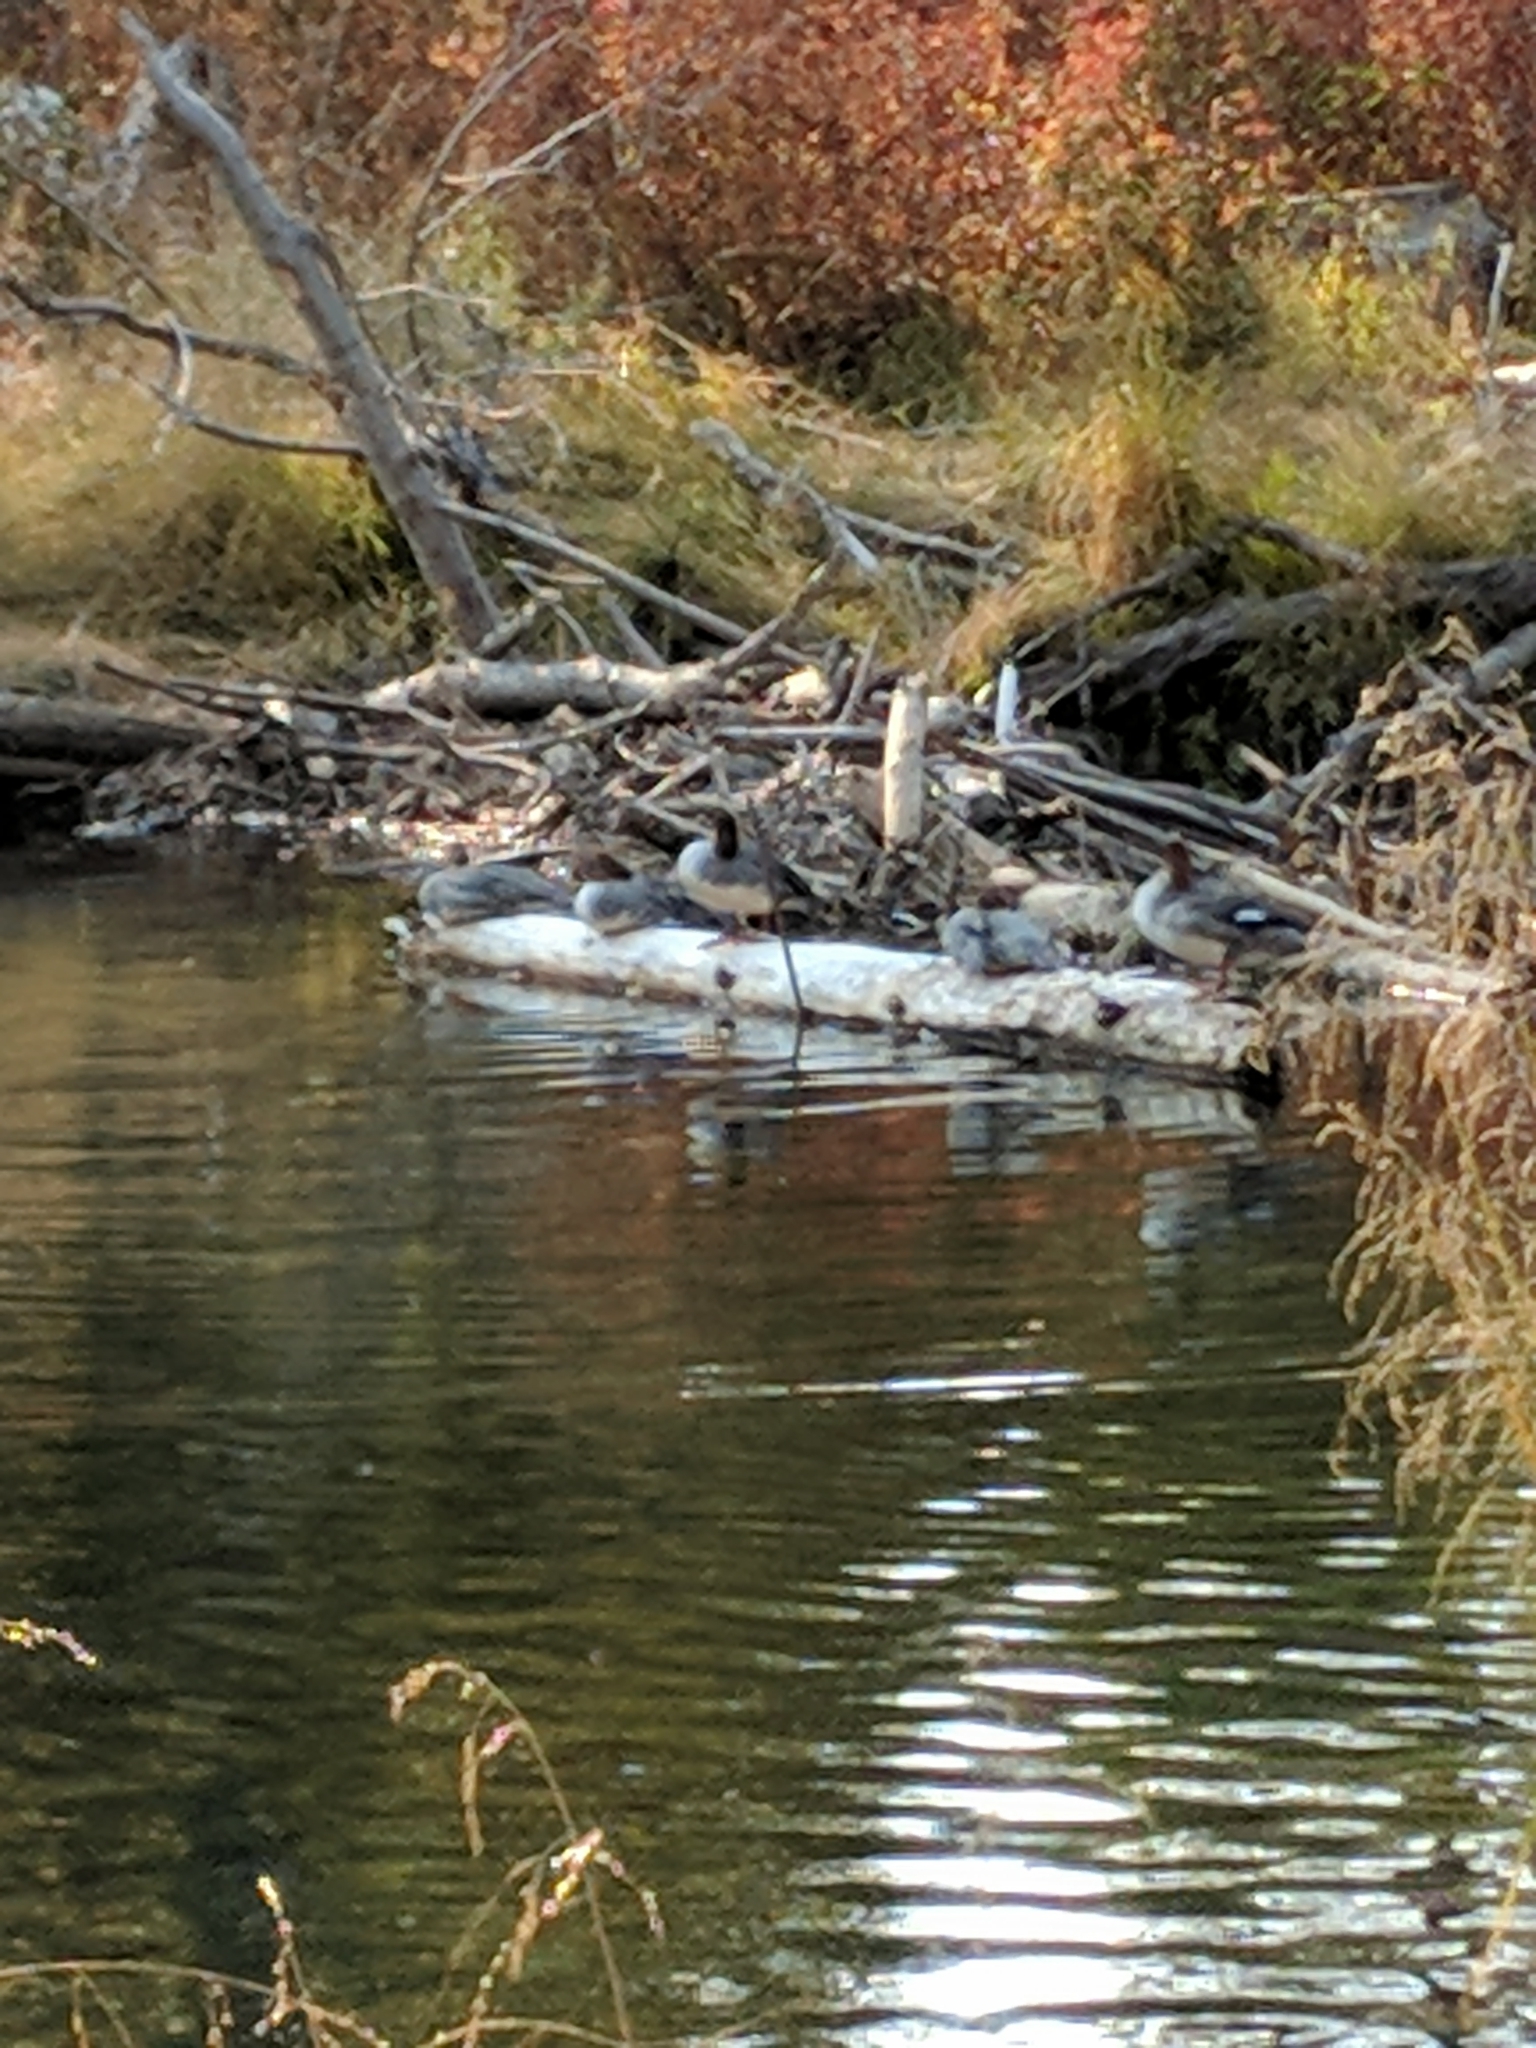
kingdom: Animalia
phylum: Chordata
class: Aves
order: Anseriformes
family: Anatidae
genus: Mergus
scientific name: Mergus merganser
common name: Common merganser
